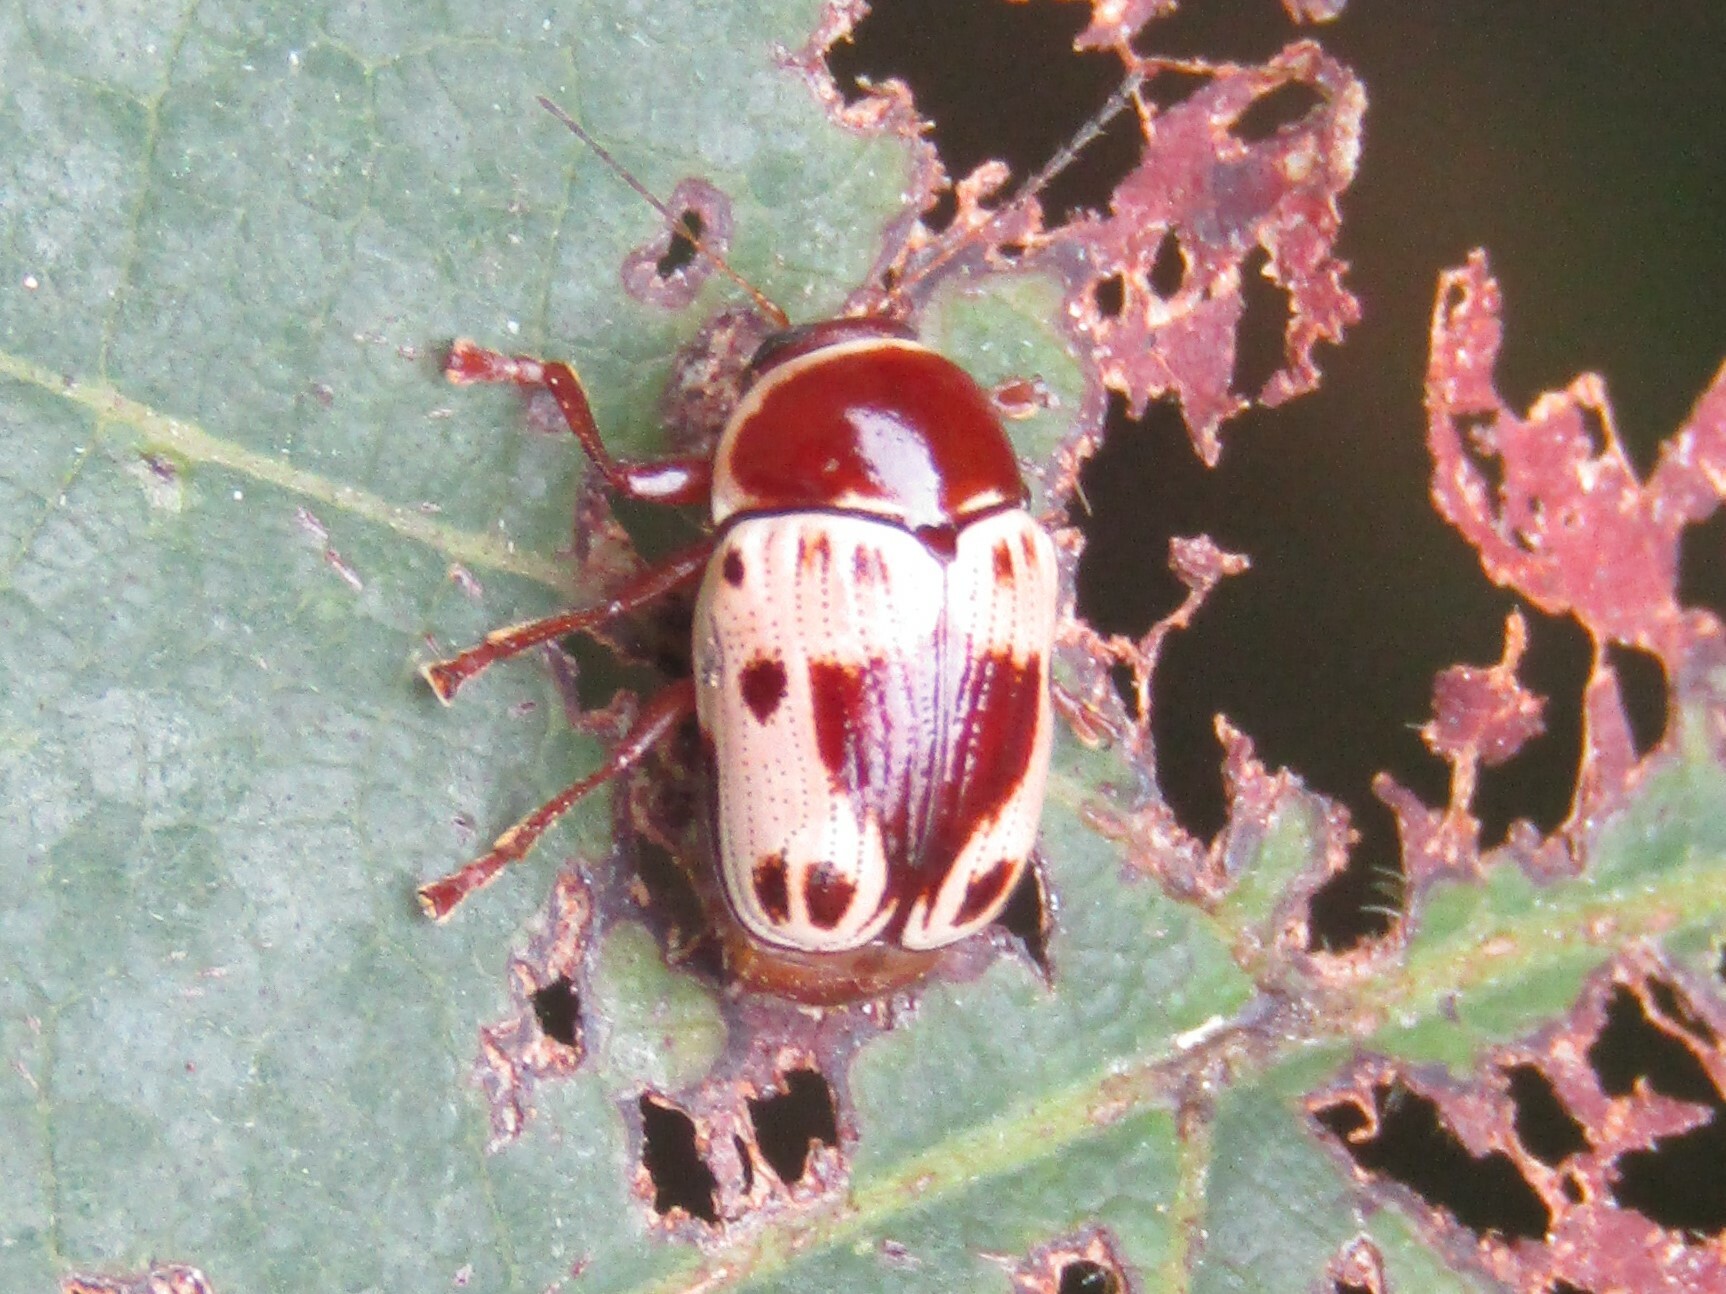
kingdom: Animalia
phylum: Arthropoda
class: Insecta
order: Coleoptera
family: Chrysomelidae
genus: Cryptocephalus
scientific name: Cryptocephalus mutabilis
